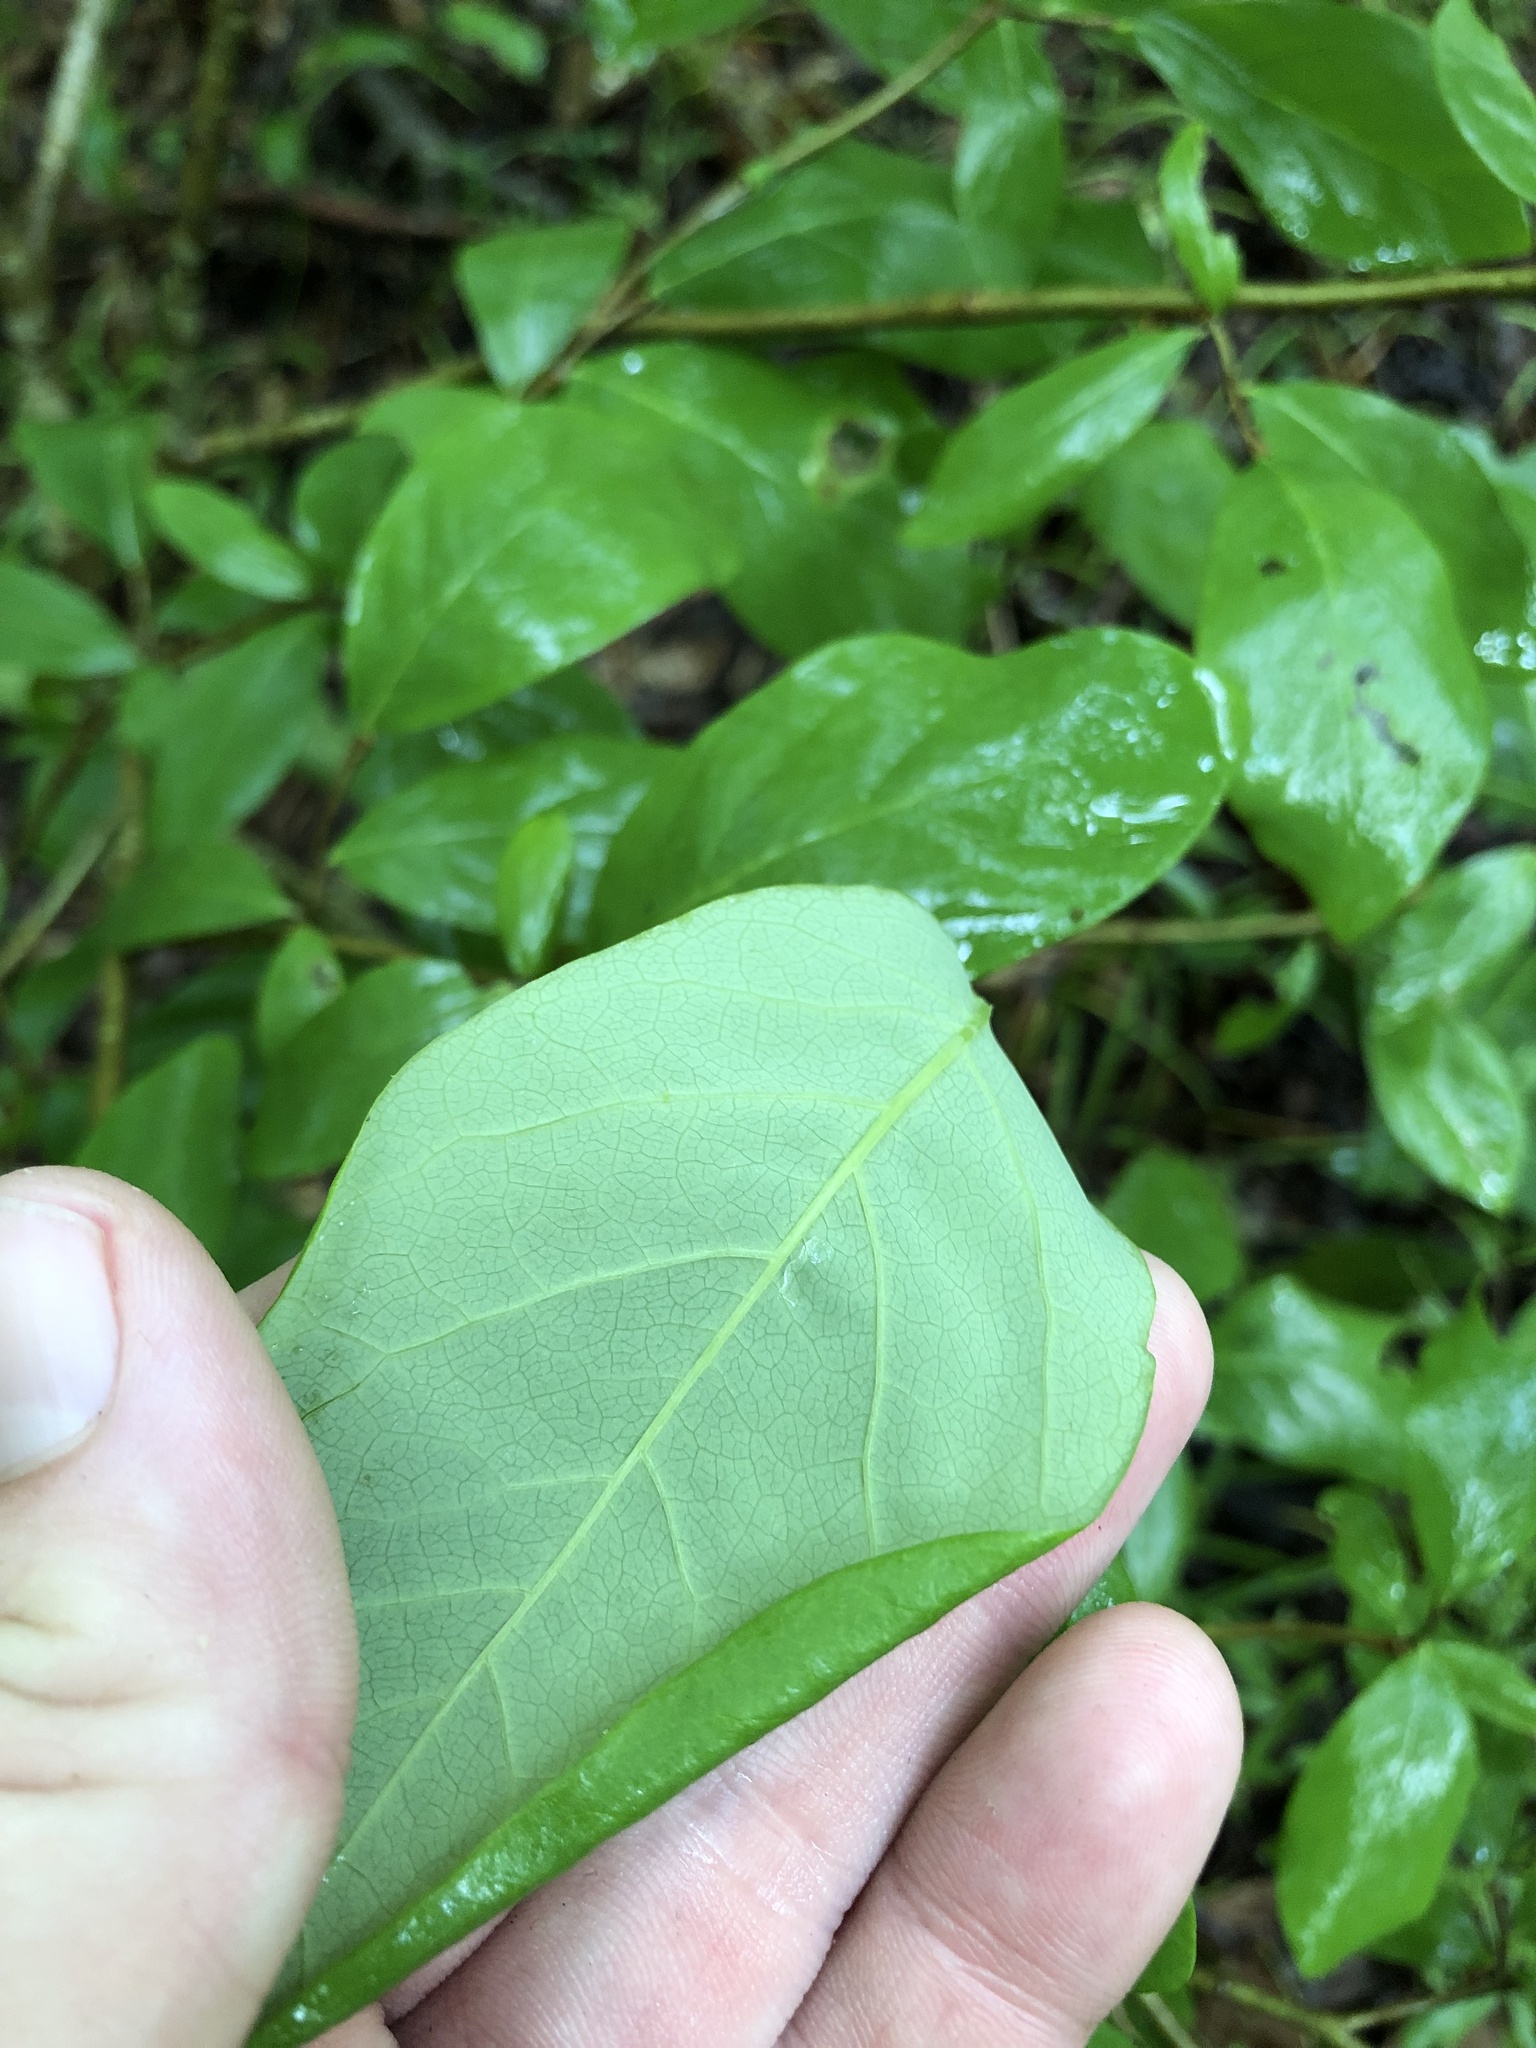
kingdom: Plantae
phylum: Tracheophyta
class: Magnoliopsida
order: Malvales
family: Thymelaeaceae
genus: Dirca
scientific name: Dirca palustris
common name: Leatherwood
